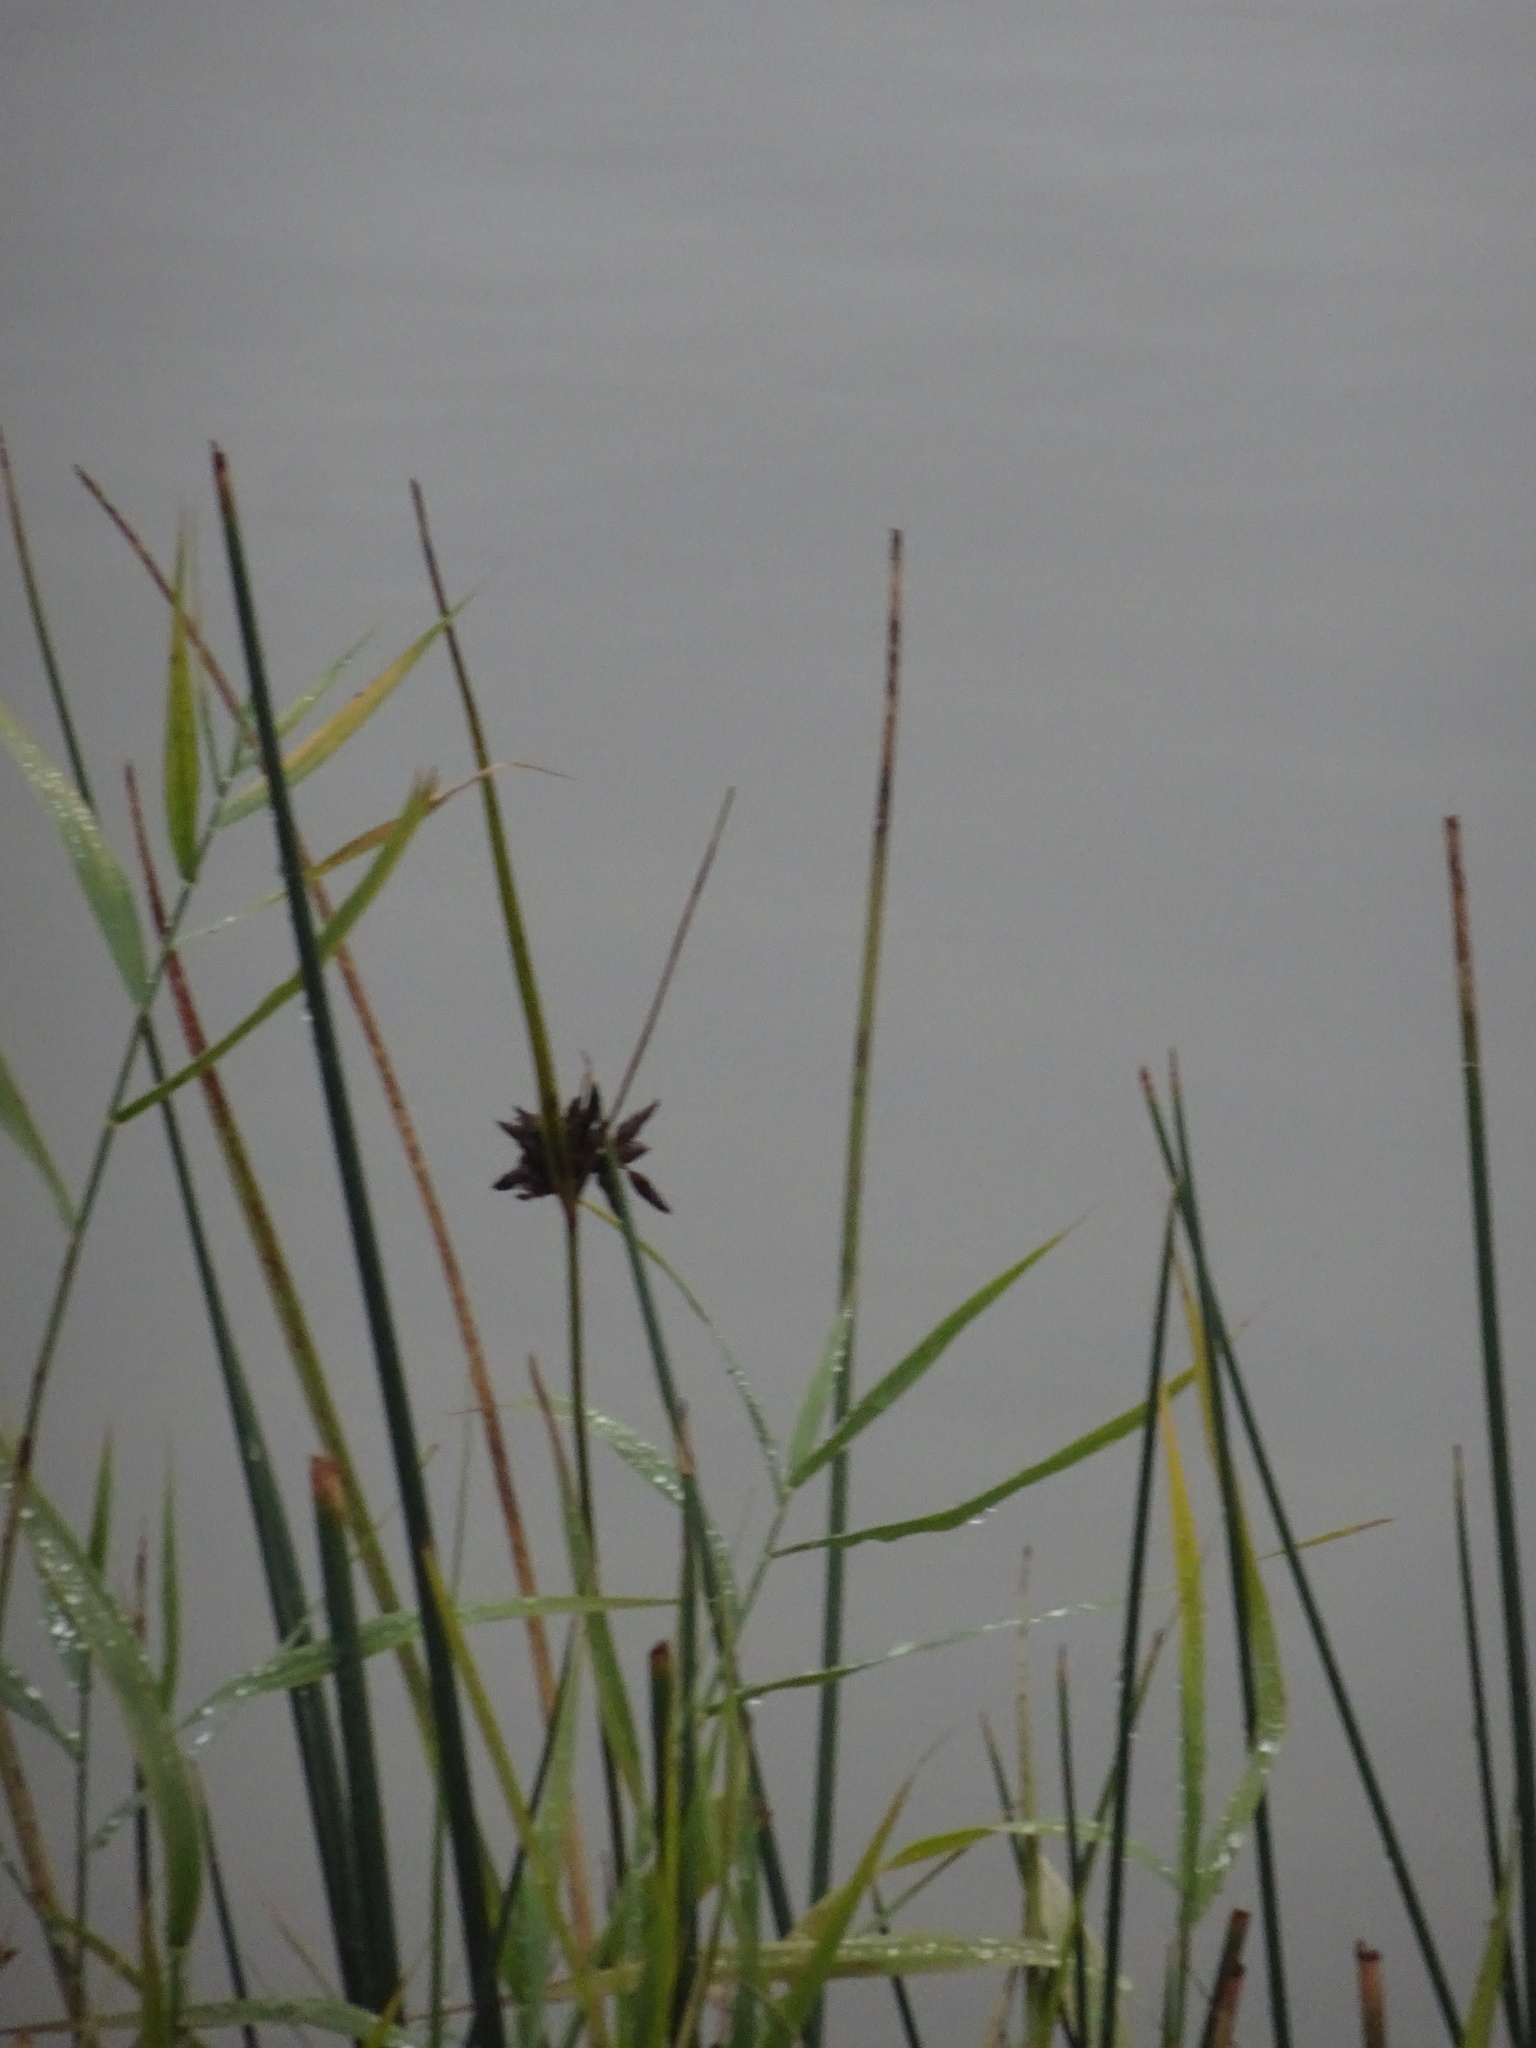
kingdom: Plantae
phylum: Tracheophyta
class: Liliopsida
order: Poales
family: Cyperaceae
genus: Bolboschoenus
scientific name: Bolboschoenus maritimus
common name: Sea club-rush
